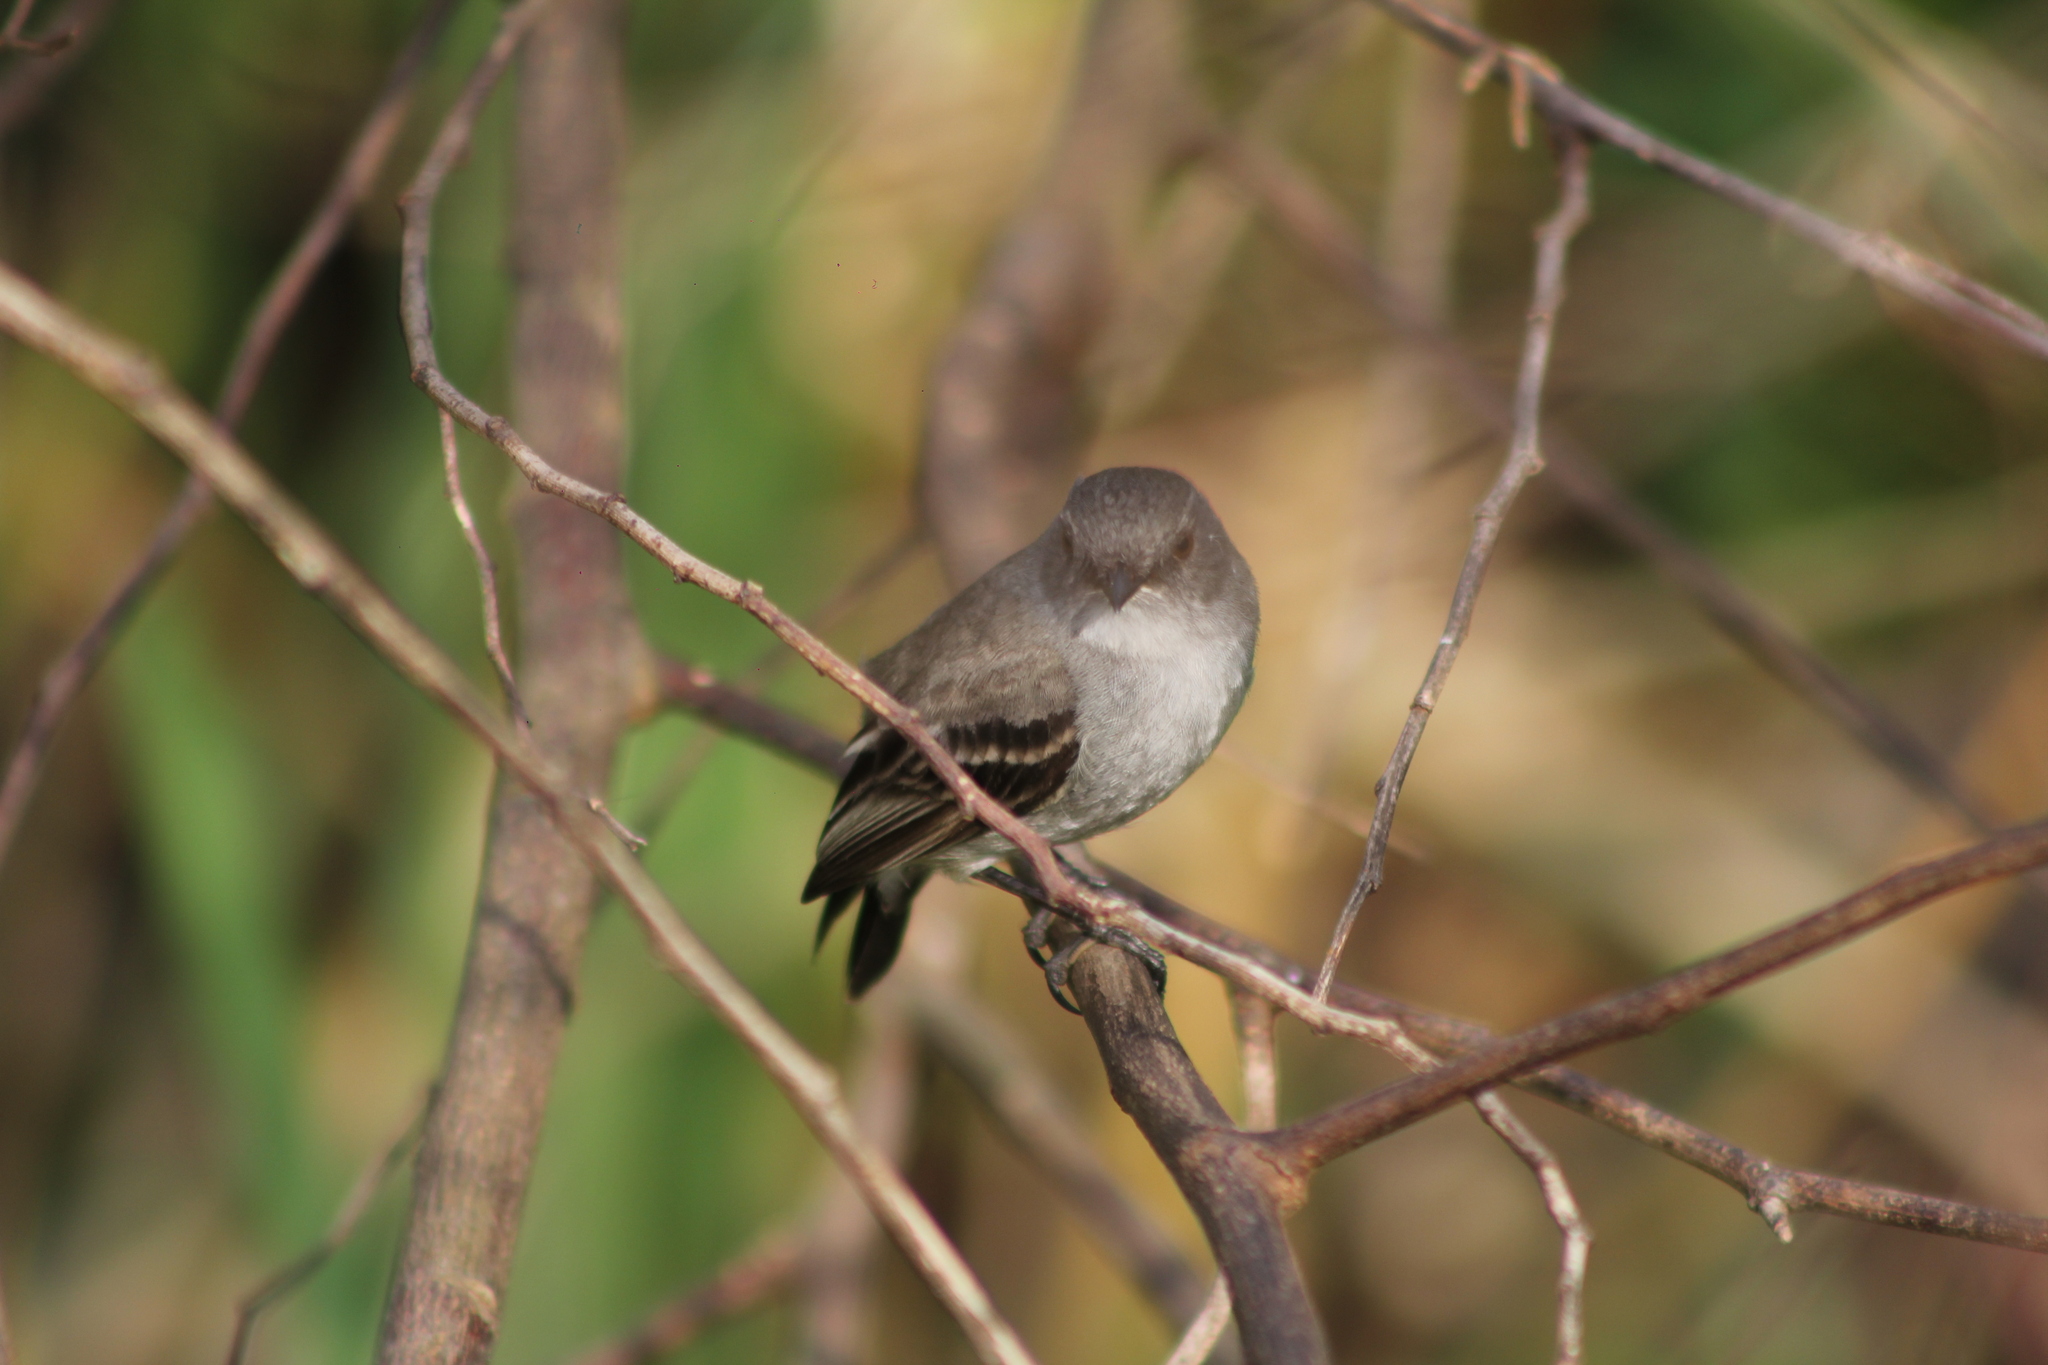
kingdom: Animalia
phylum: Chordata
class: Aves
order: Passeriformes
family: Tyrannidae
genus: Serpophaga
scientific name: Serpophaga nigricans
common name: Sooty tyrannulet
